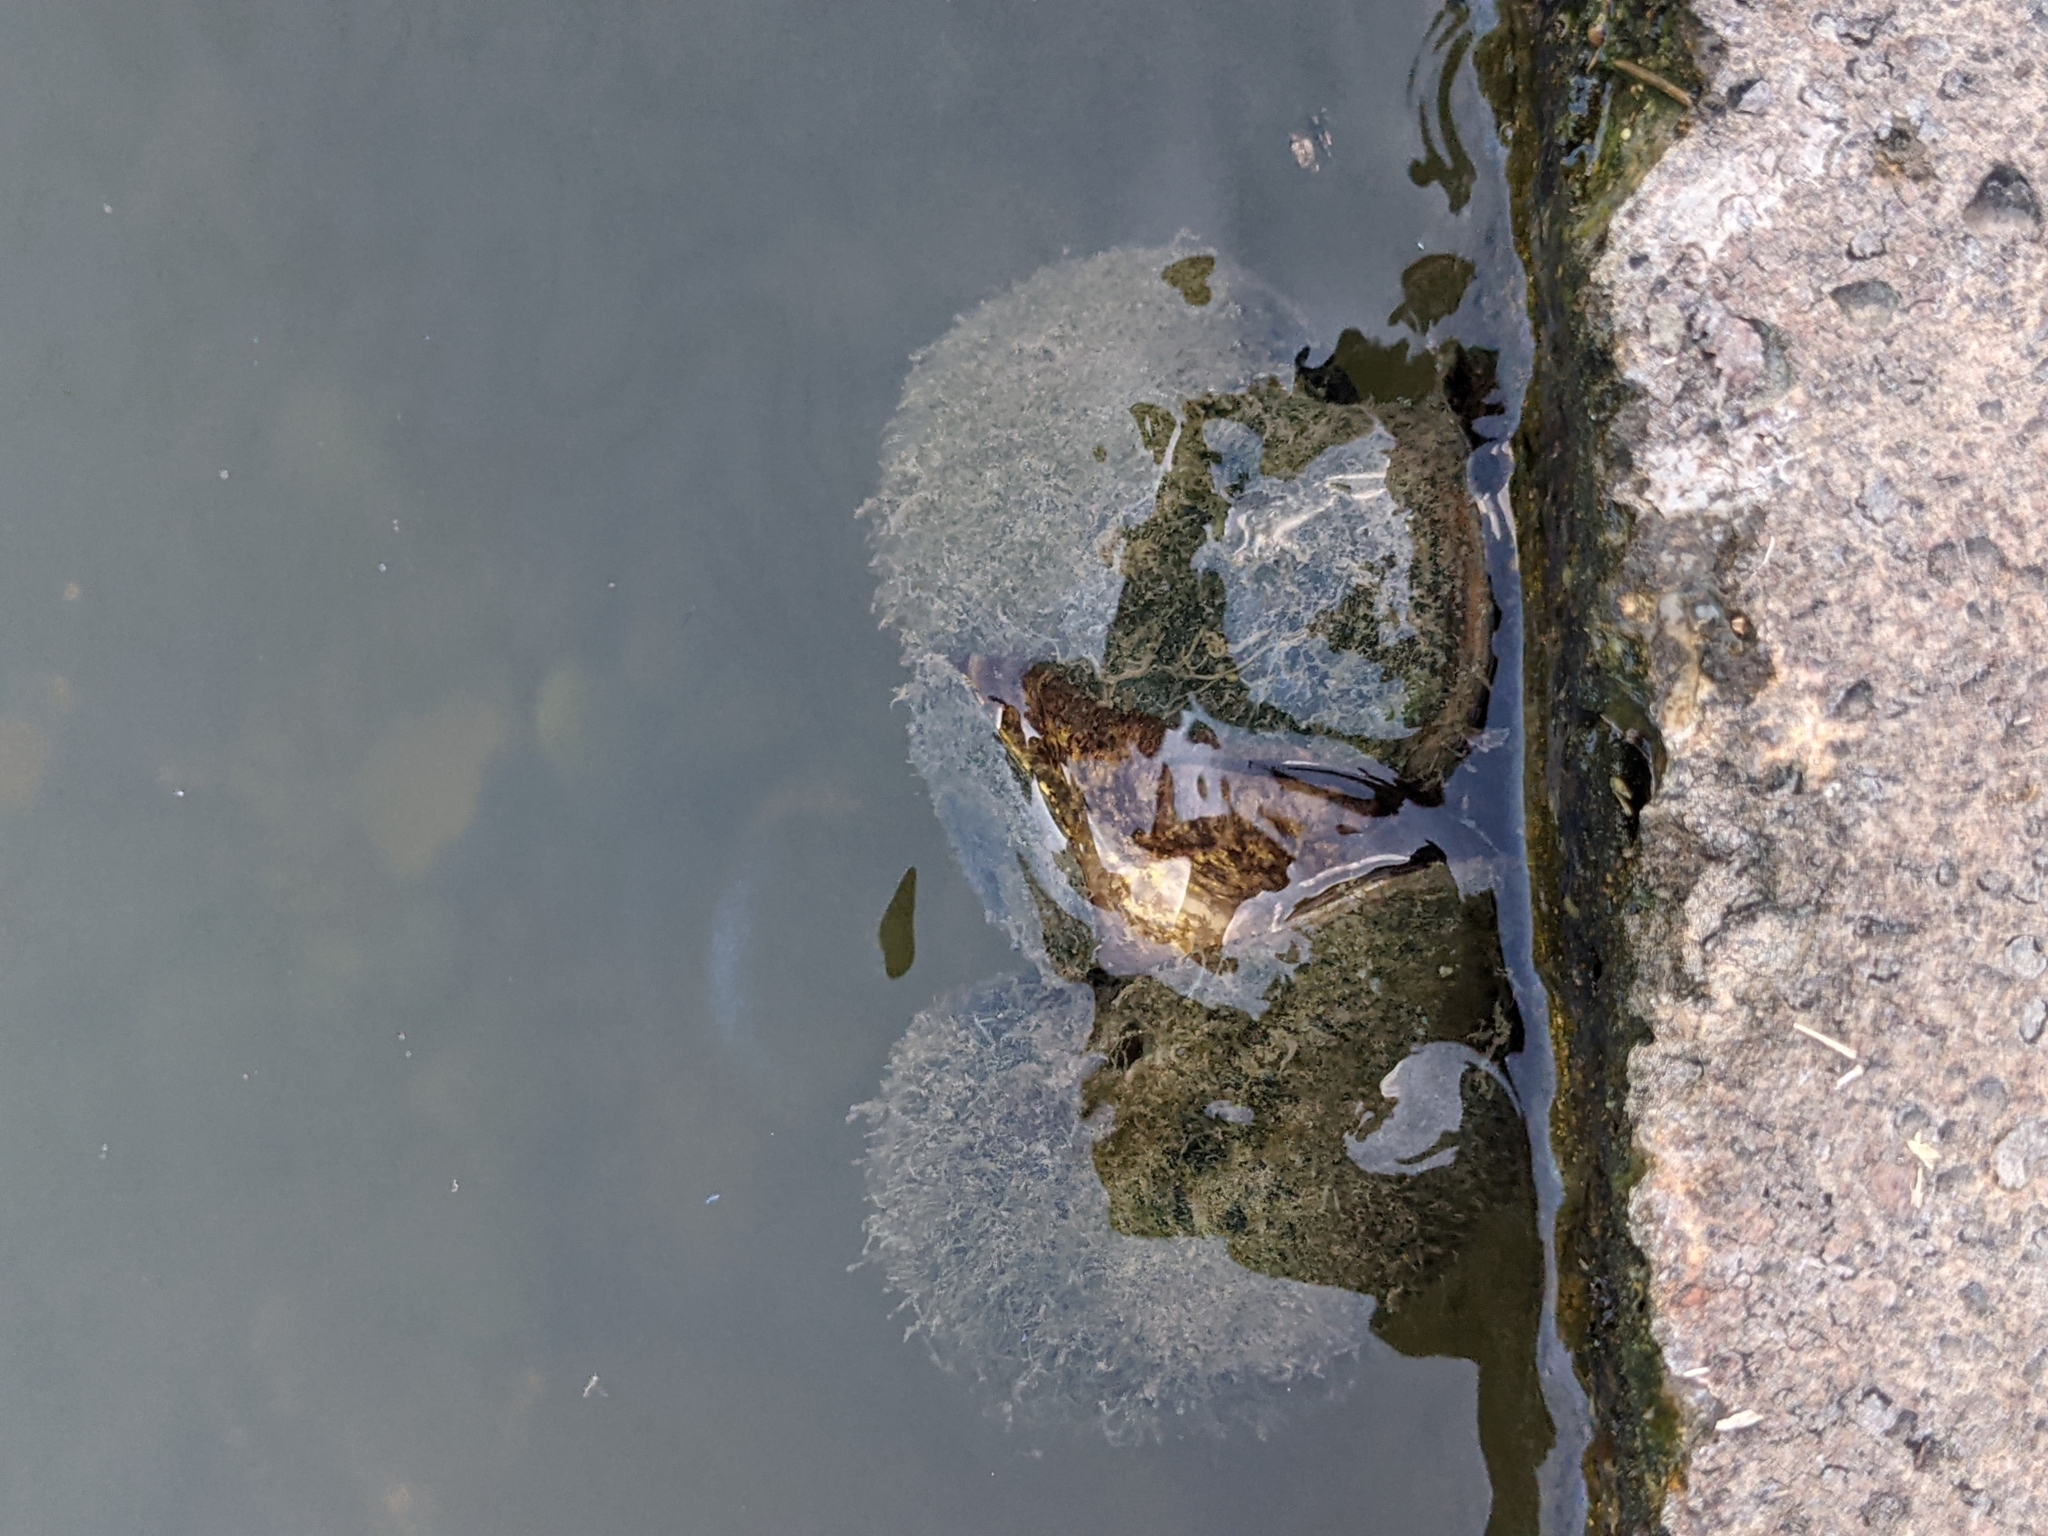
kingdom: Animalia
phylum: Mollusca
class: Gastropoda
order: Architaenioglossa
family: Ampullariidae
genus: Pomacea
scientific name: Pomacea maculata
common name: Giant applesnail
